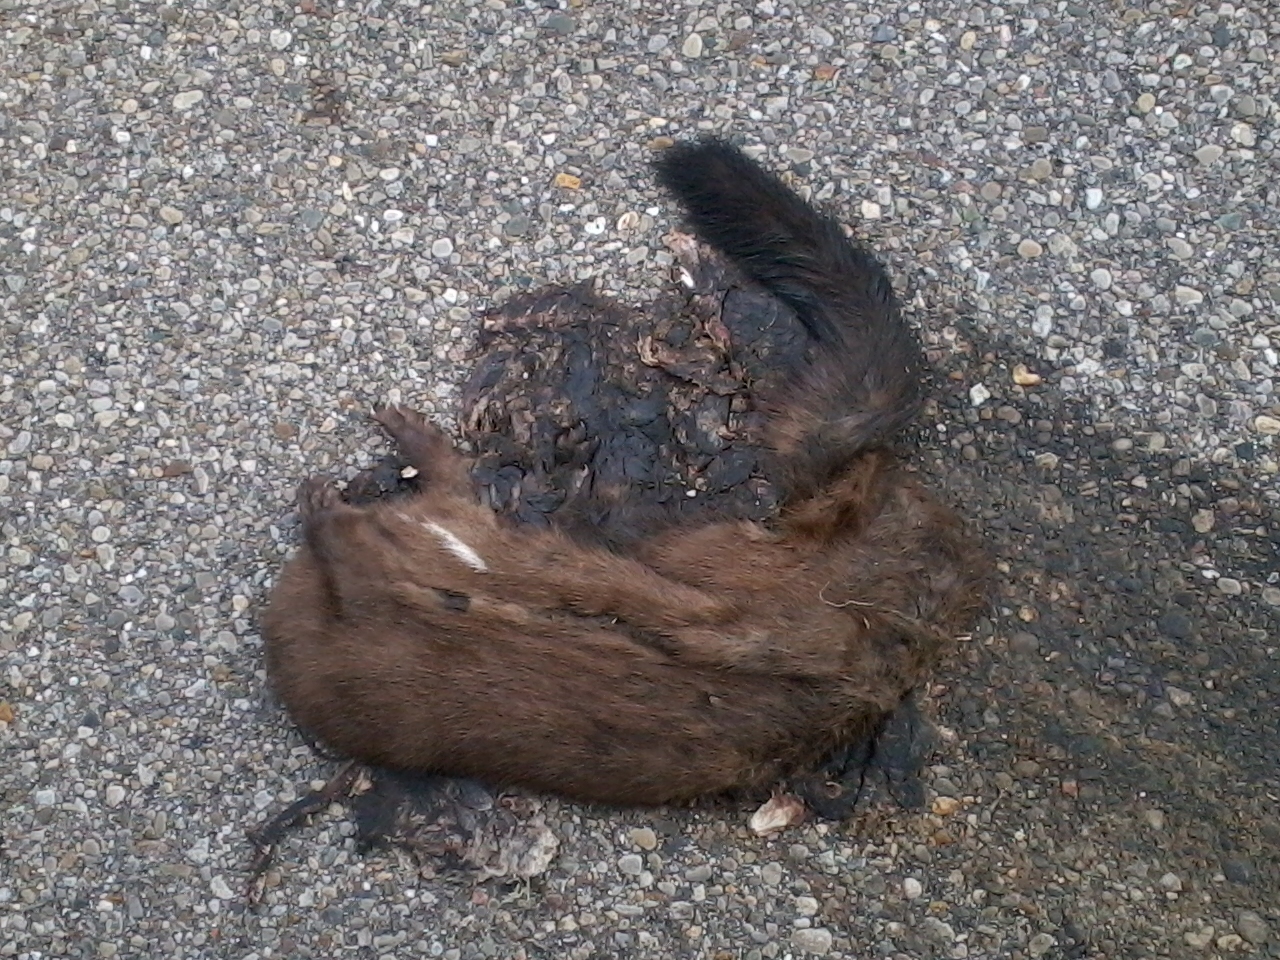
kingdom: Animalia
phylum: Chordata
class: Mammalia
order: Carnivora
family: Mustelidae
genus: Mustela
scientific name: Mustela
